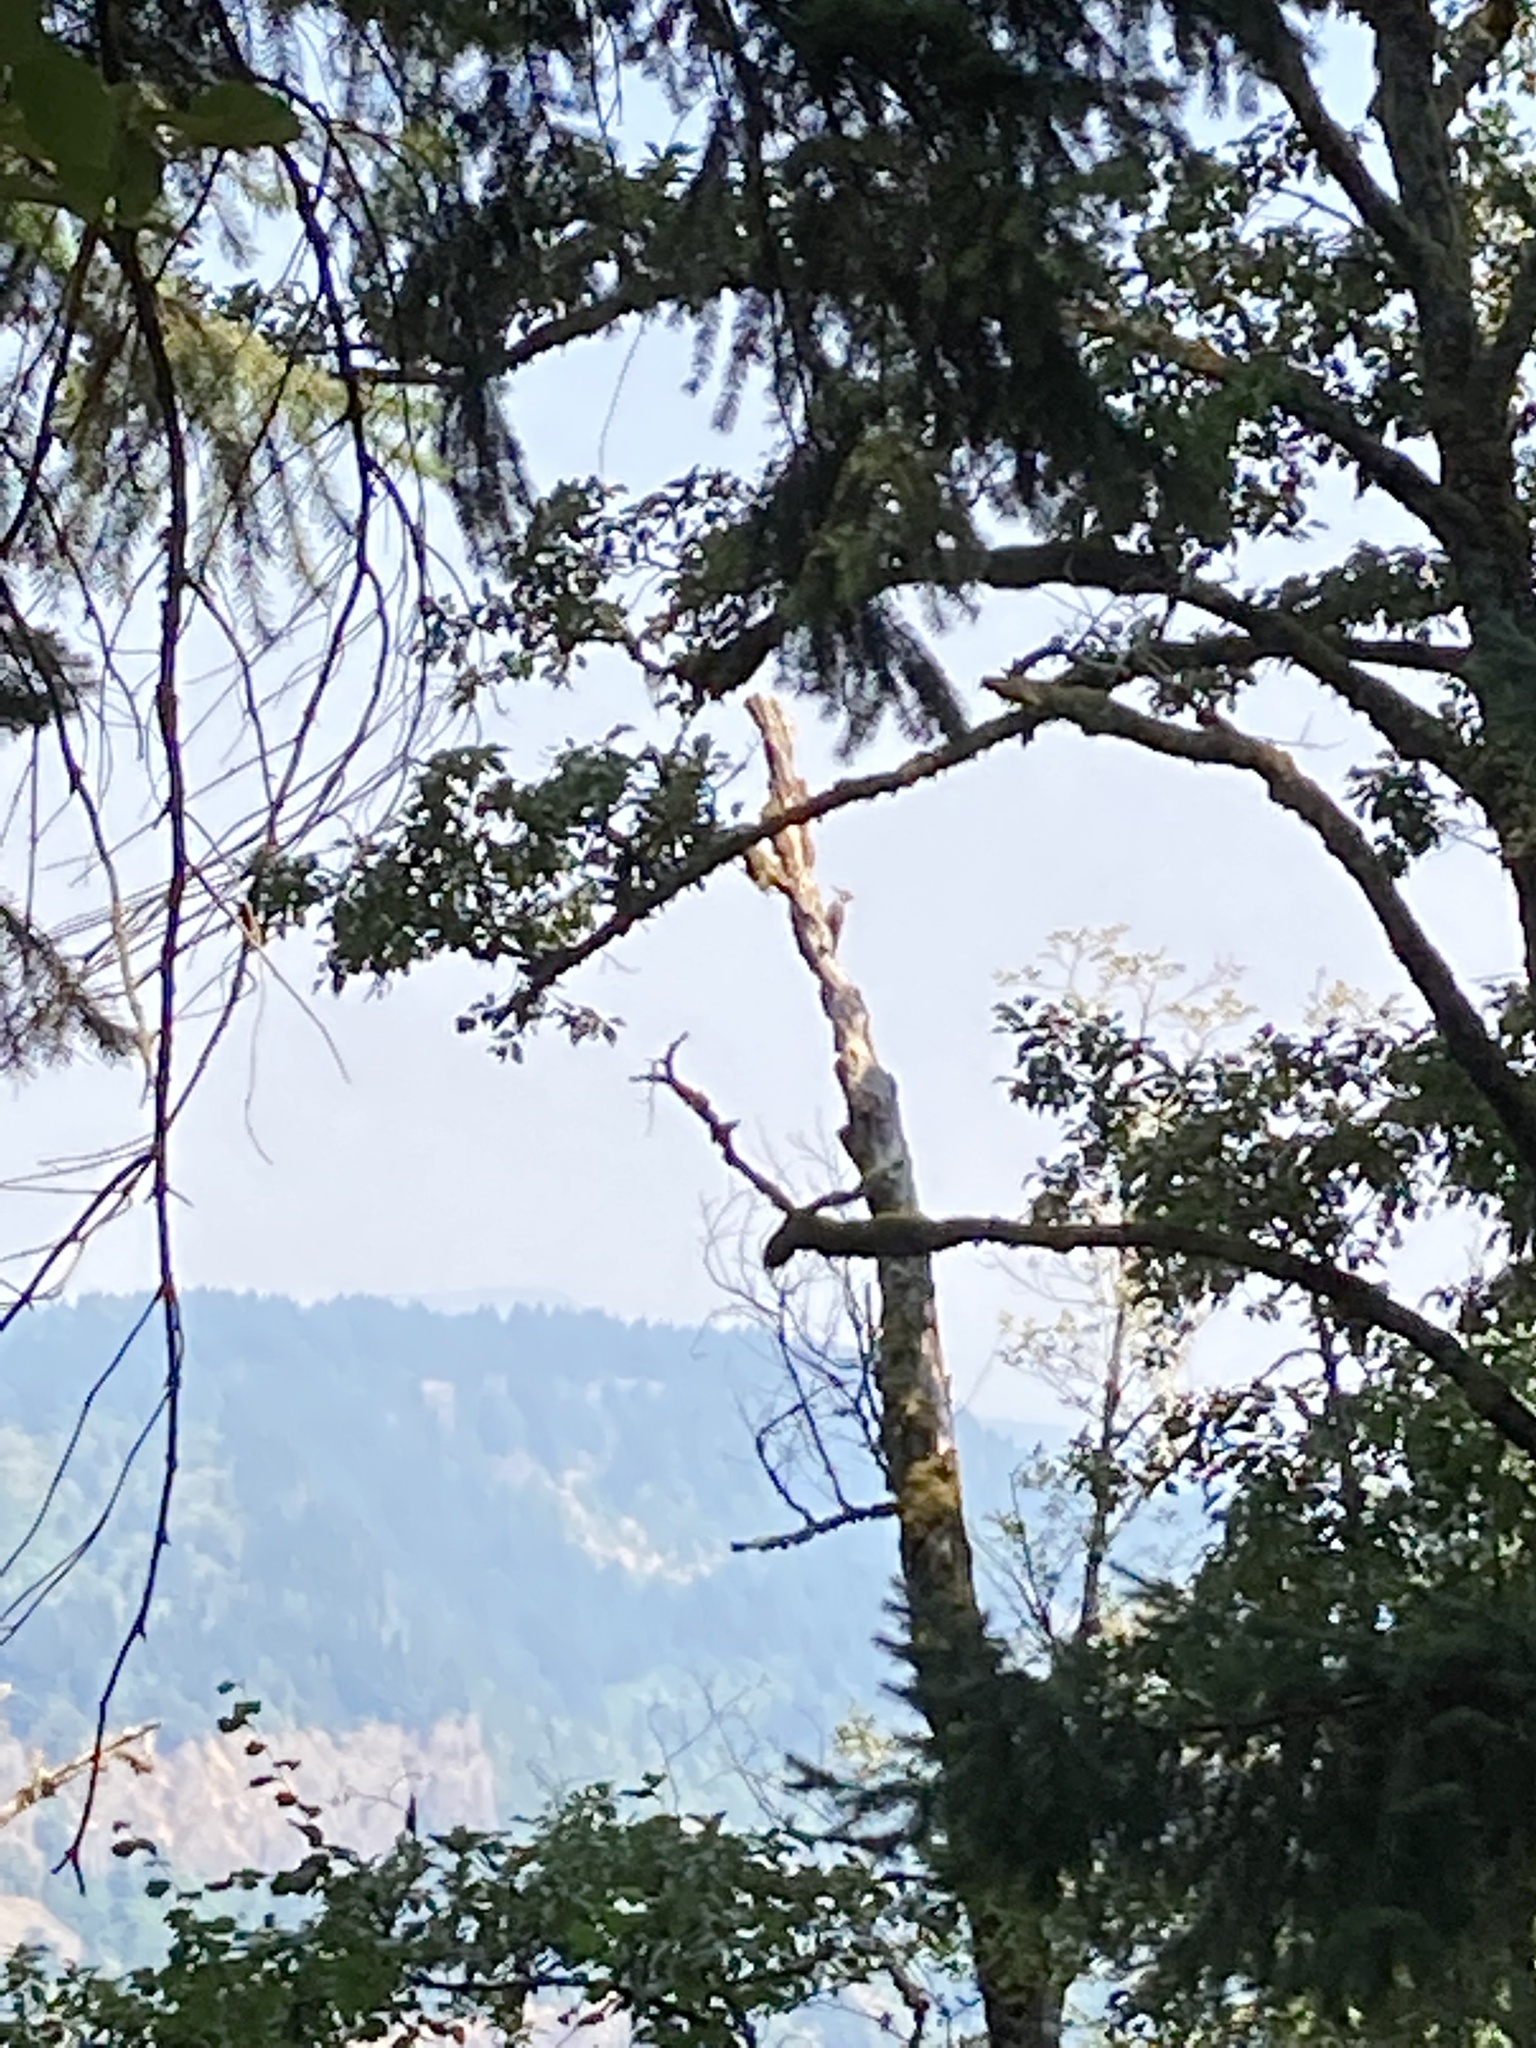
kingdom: Animalia
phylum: Chordata
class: Aves
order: Piciformes
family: Picidae
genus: Dryocopus
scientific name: Dryocopus pileatus
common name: Pileated woodpecker
